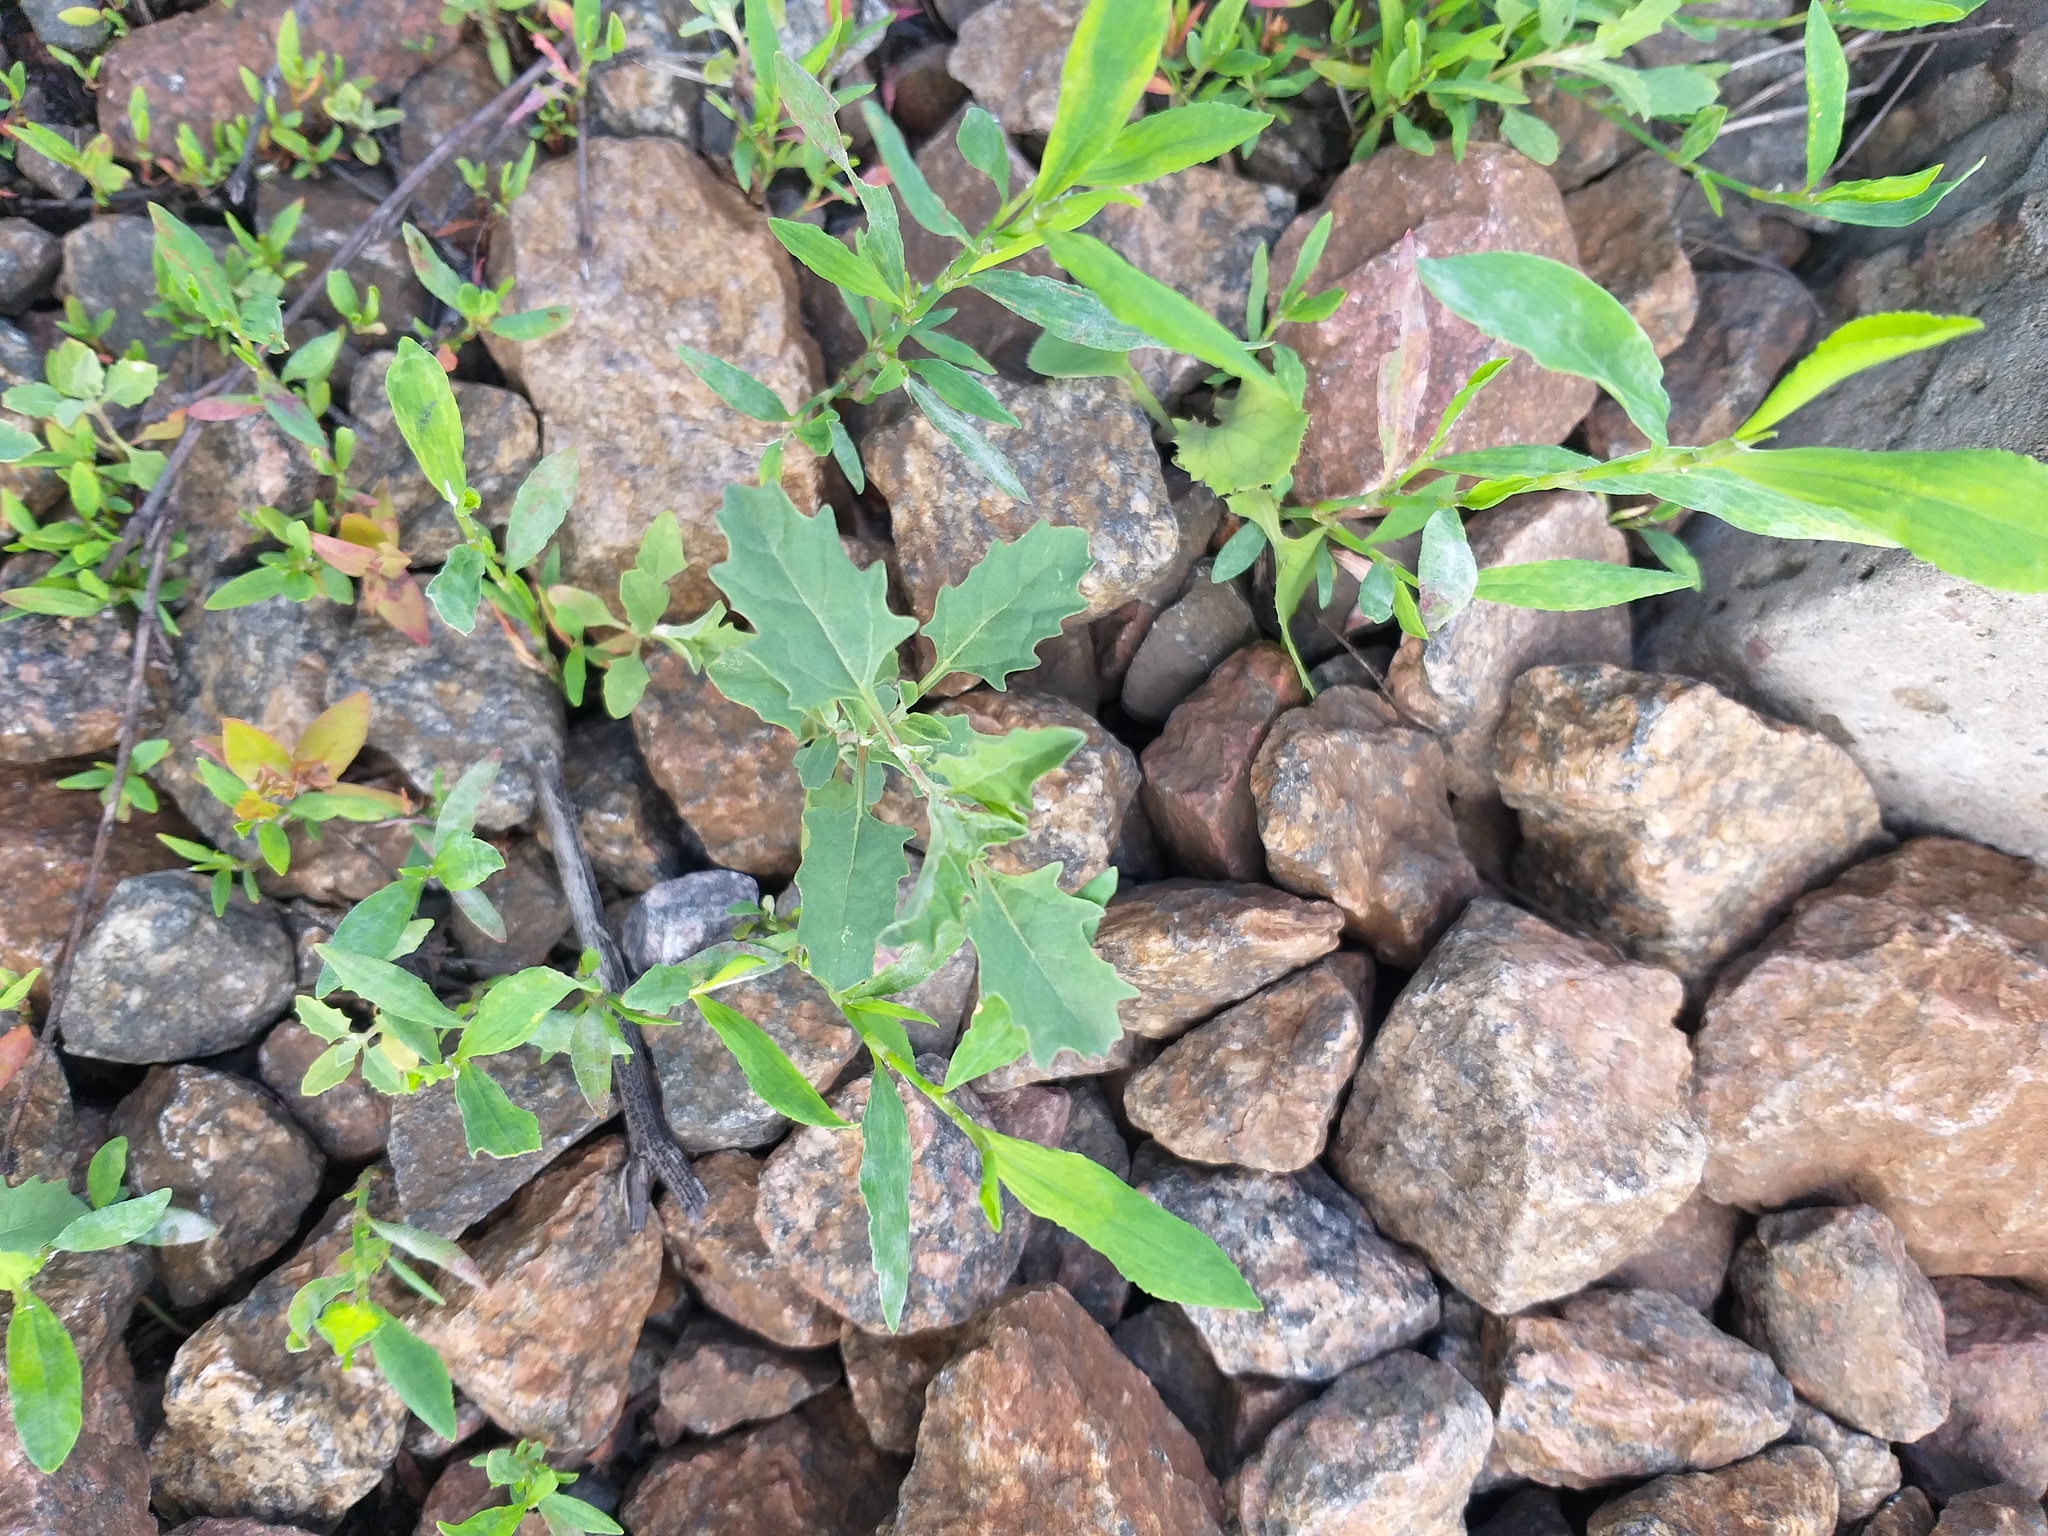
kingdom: Plantae
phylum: Tracheophyta
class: Magnoliopsida
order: Caryophyllales
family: Amaranthaceae
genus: Atriplex
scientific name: Atriplex tatarica
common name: Tatarian orache
